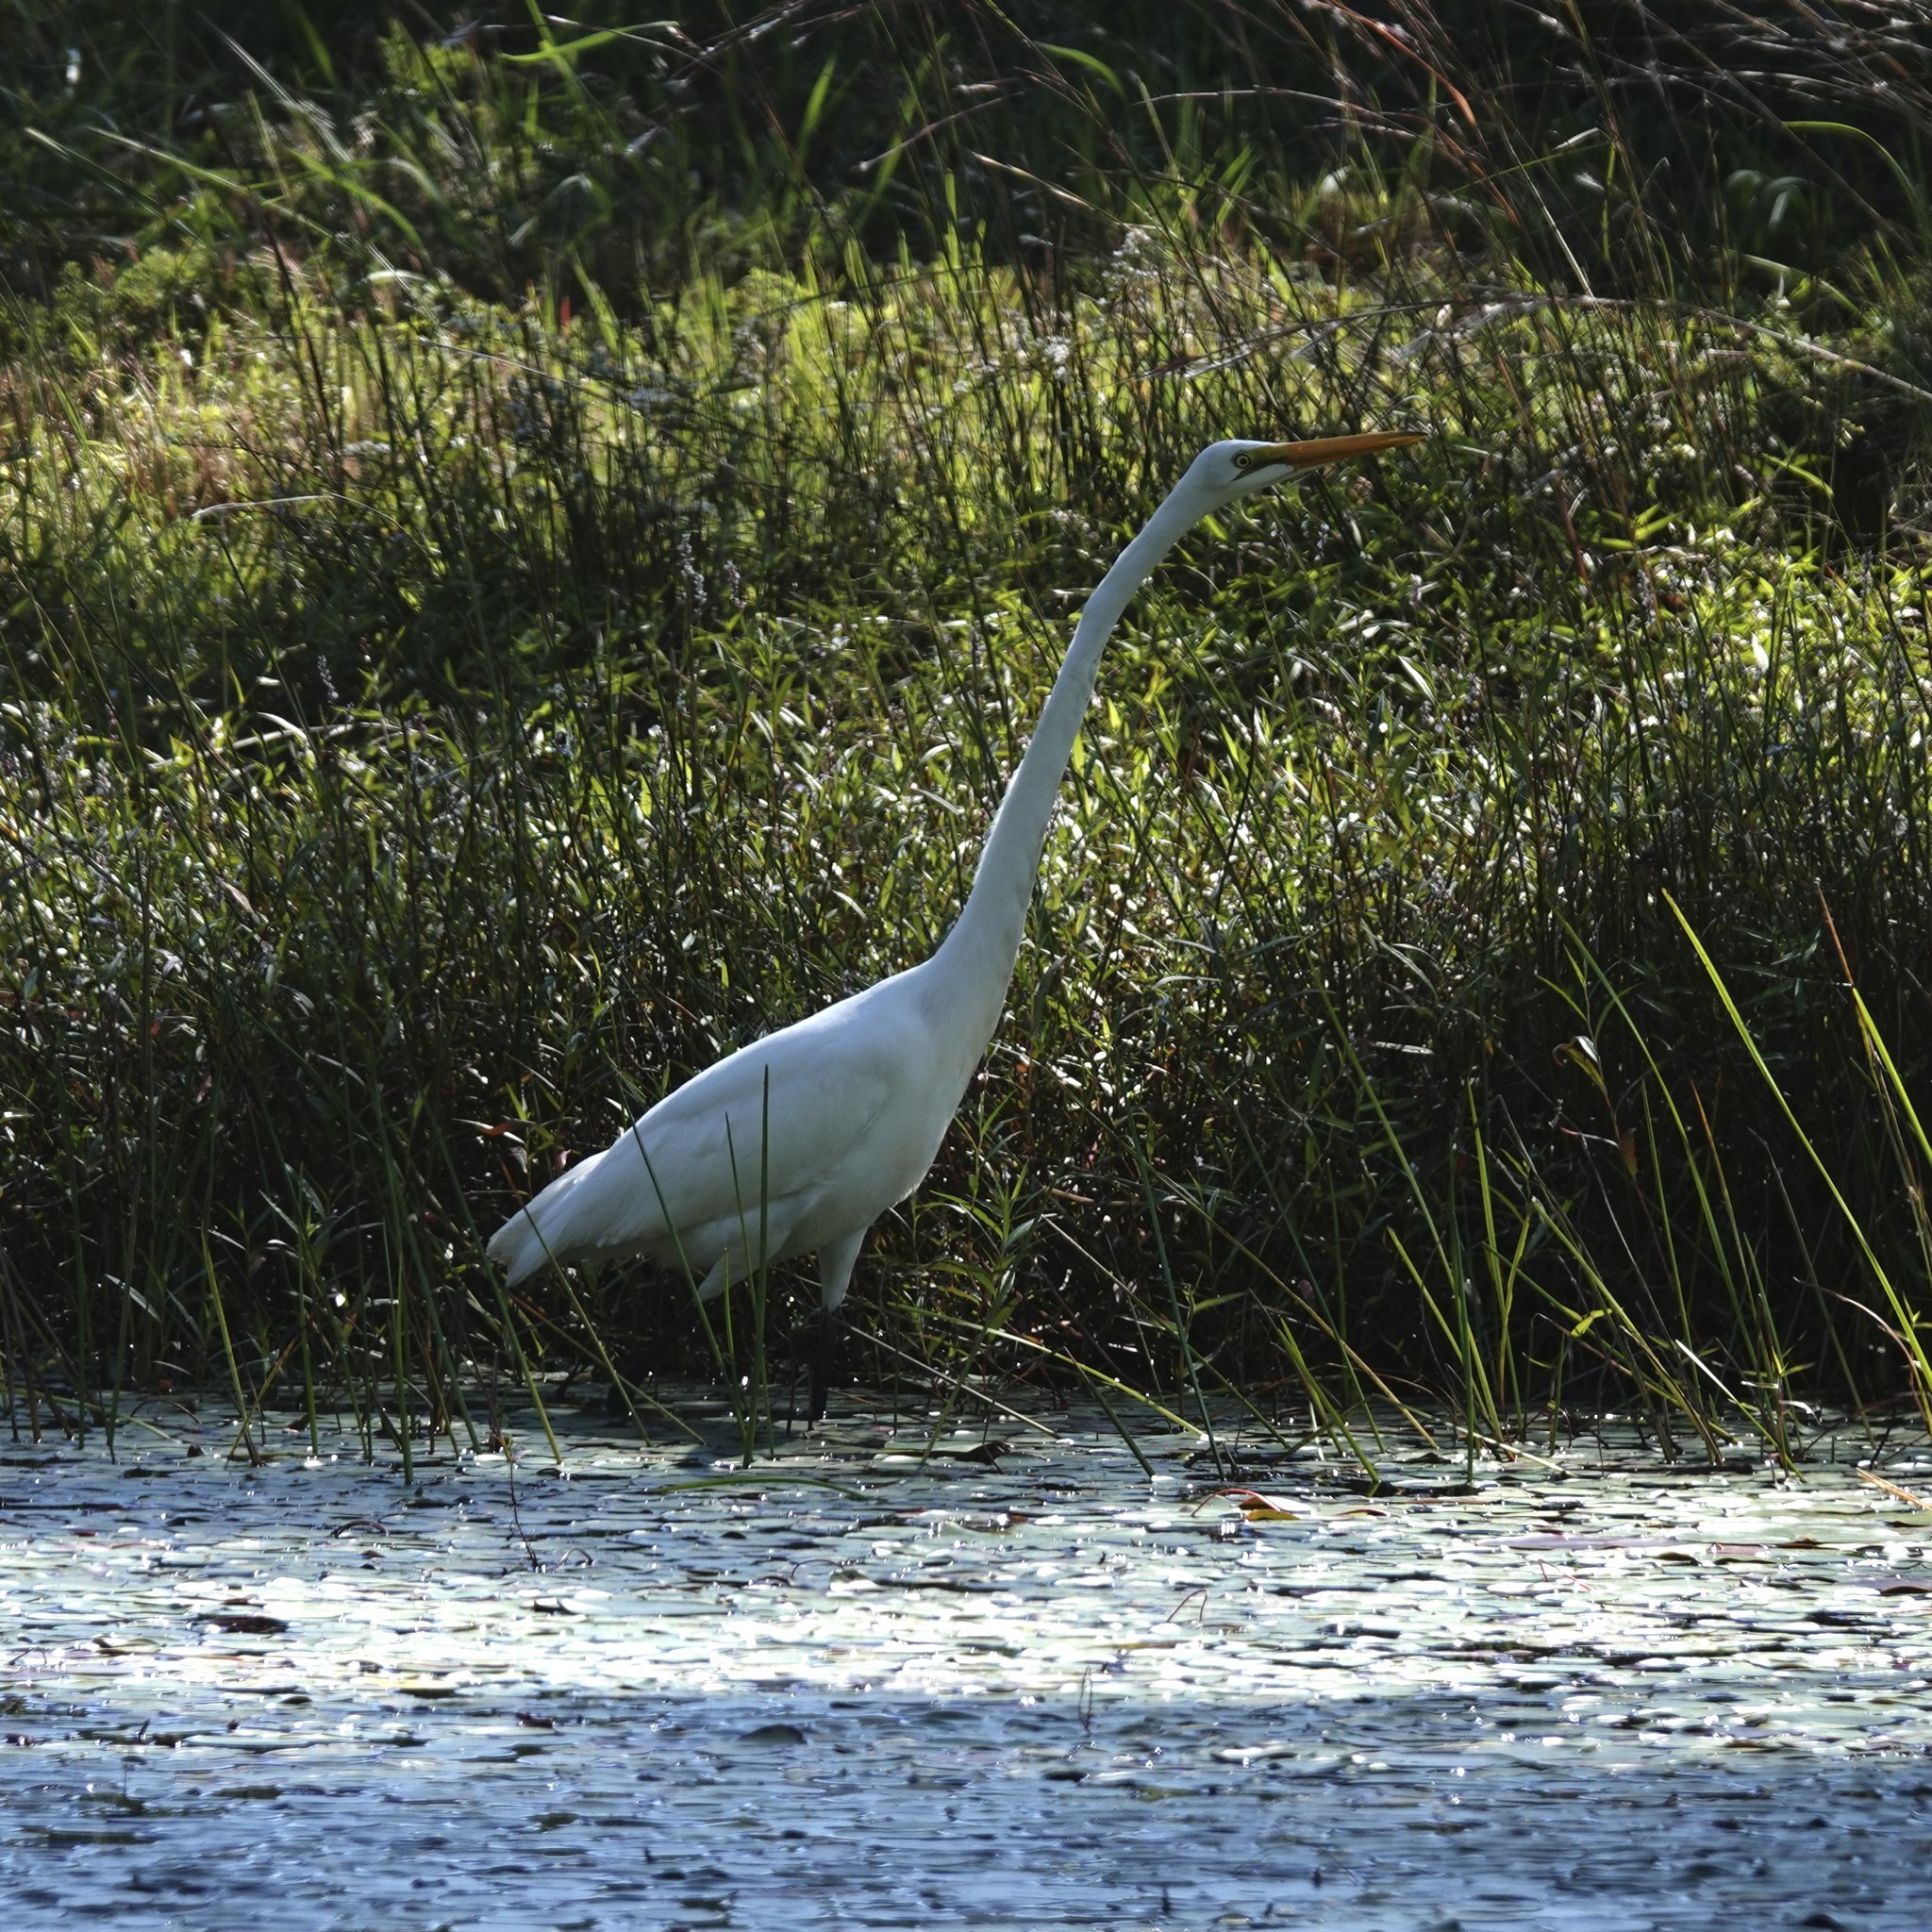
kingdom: Animalia
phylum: Chordata
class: Aves
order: Pelecaniformes
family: Ardeidae
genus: Ardea
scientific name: Ardea alba
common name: Great egret
